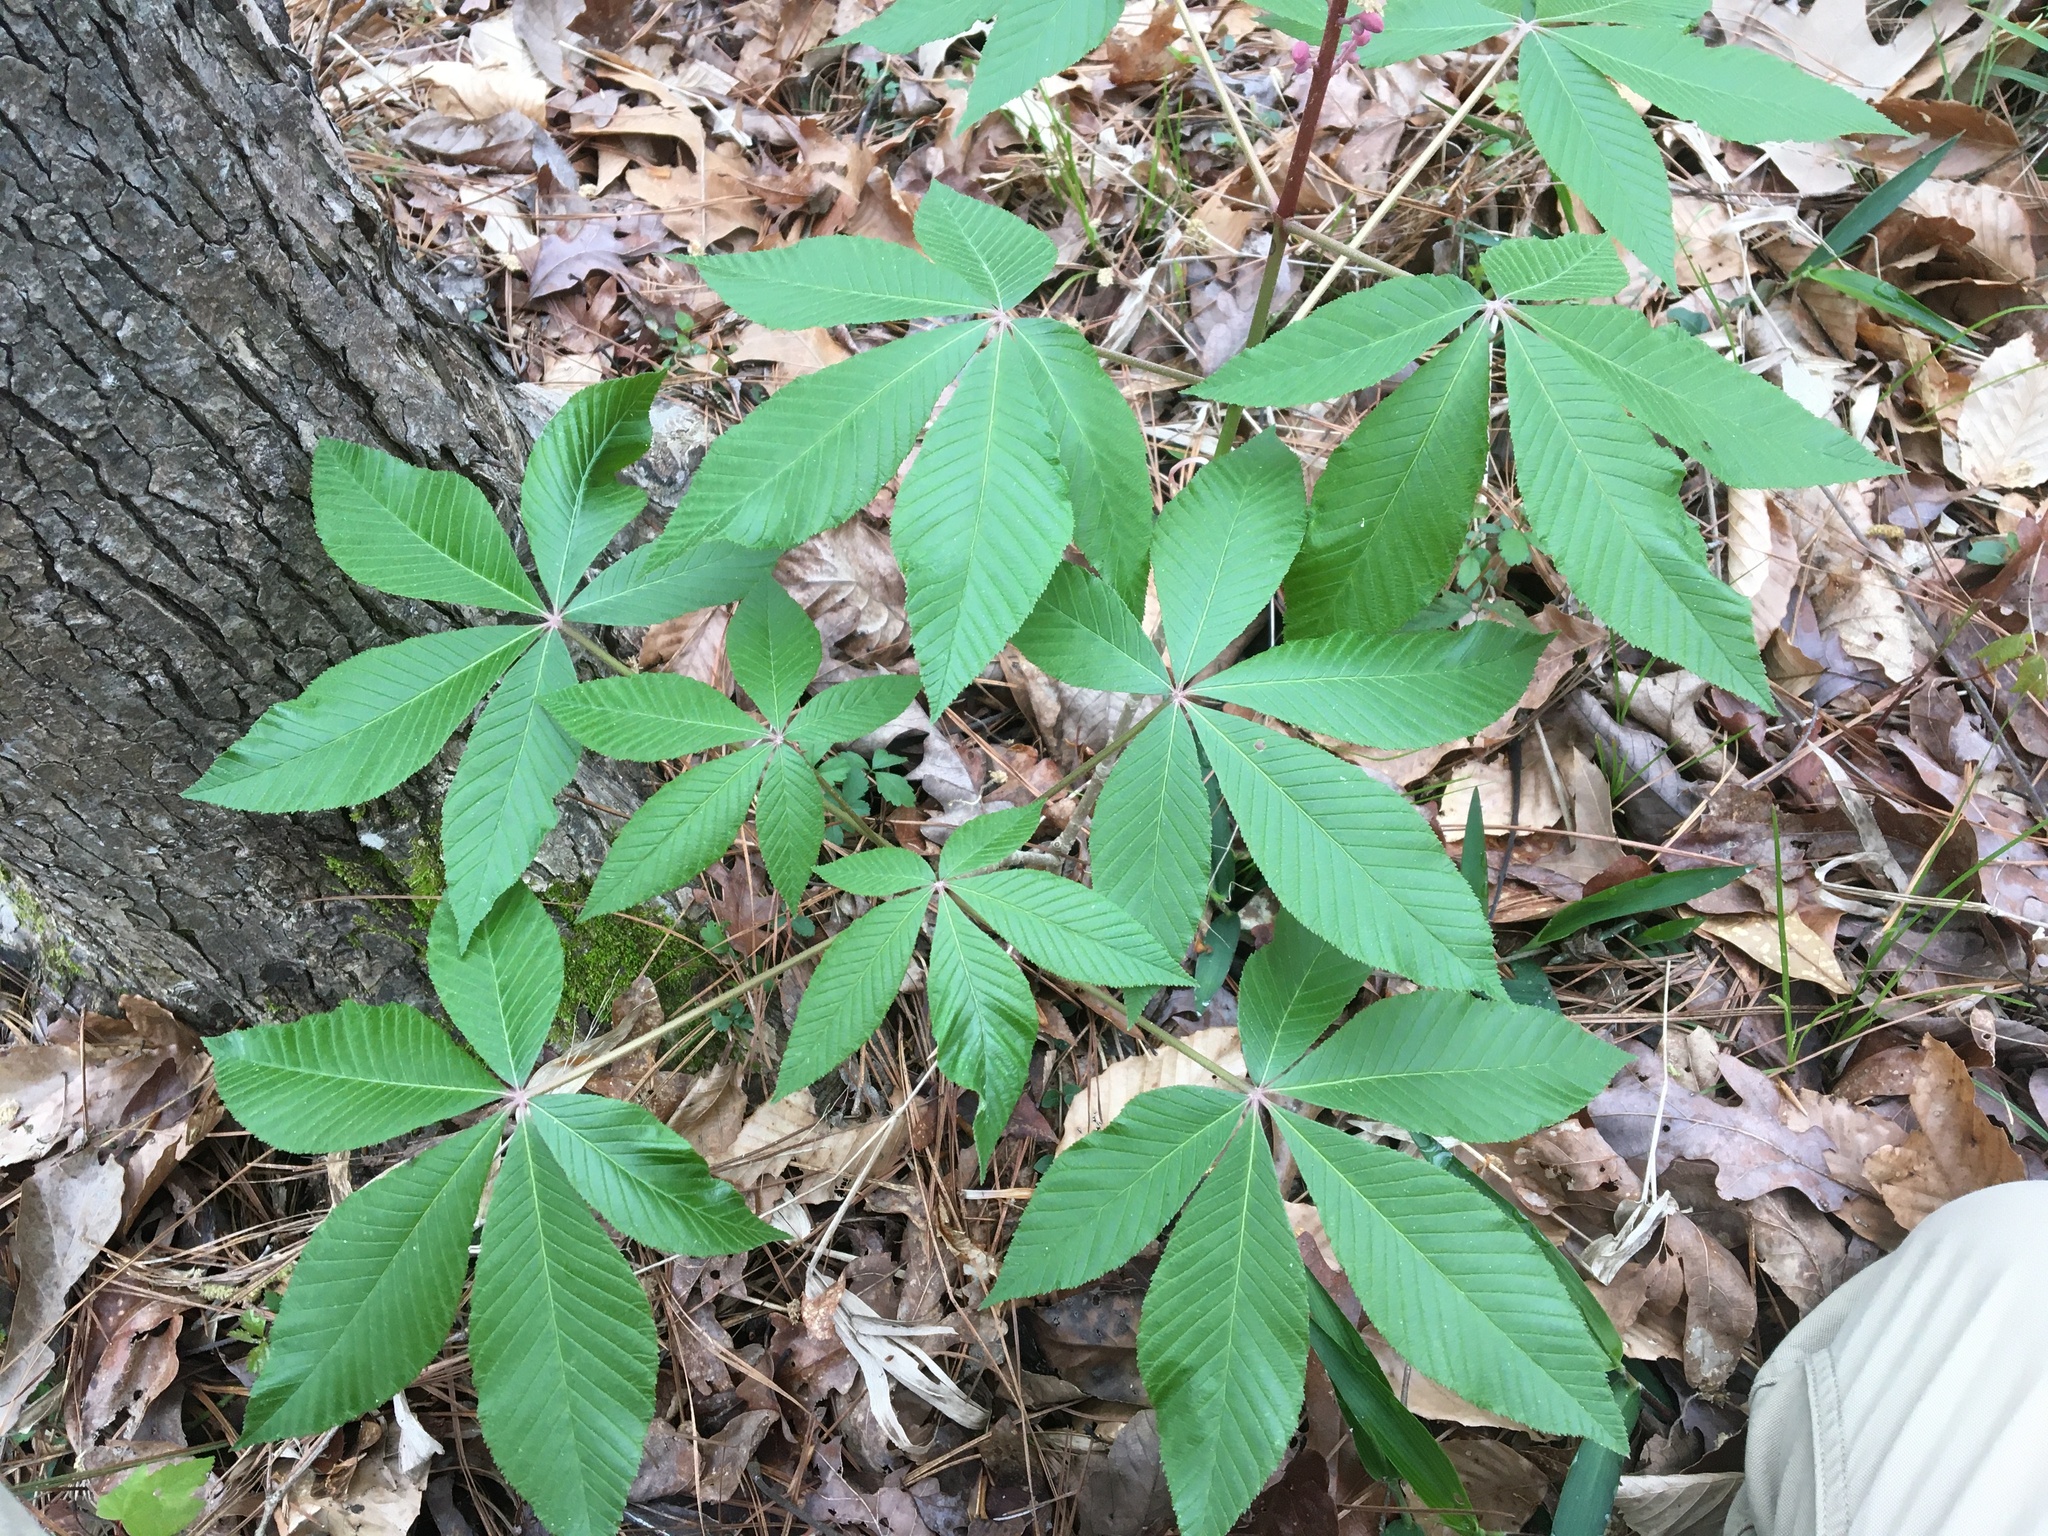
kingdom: Plantae
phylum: Tracheophyta
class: Magnoliopsida
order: Sapindales
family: Sapindaceae
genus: Aesculus
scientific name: Aesculus pavia
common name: Red buckeye
